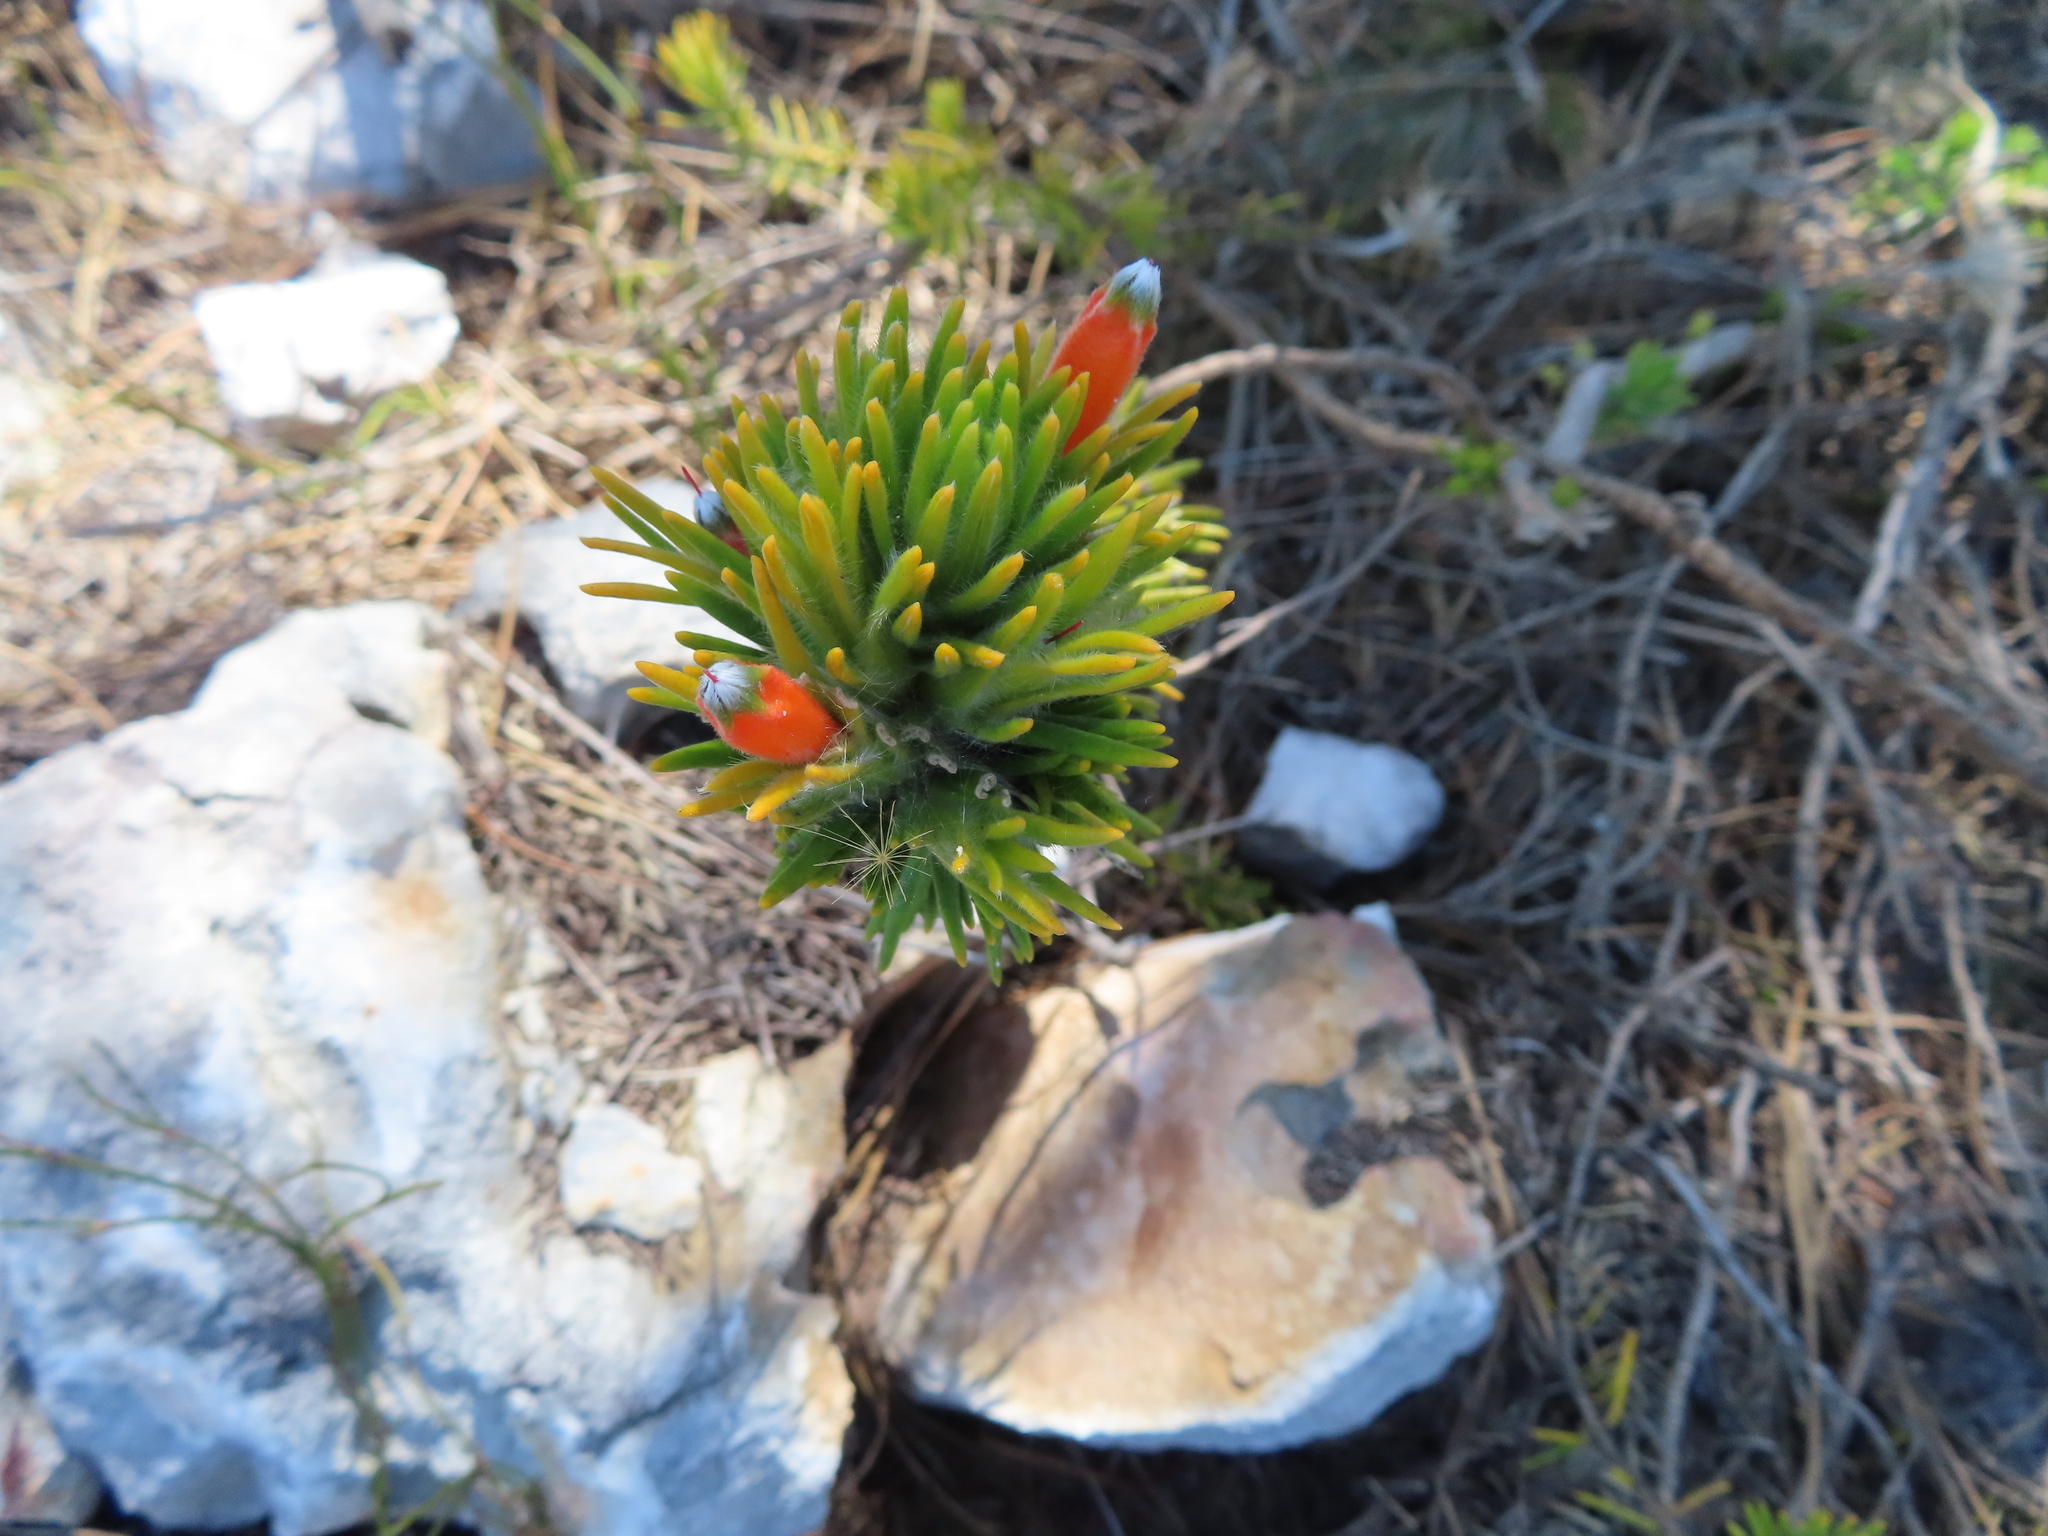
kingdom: Plantae
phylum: Tracheophyta
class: Magnoliopsida
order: Lamiales
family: Stilbaceae
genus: Retzia
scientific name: Retzia capensis
